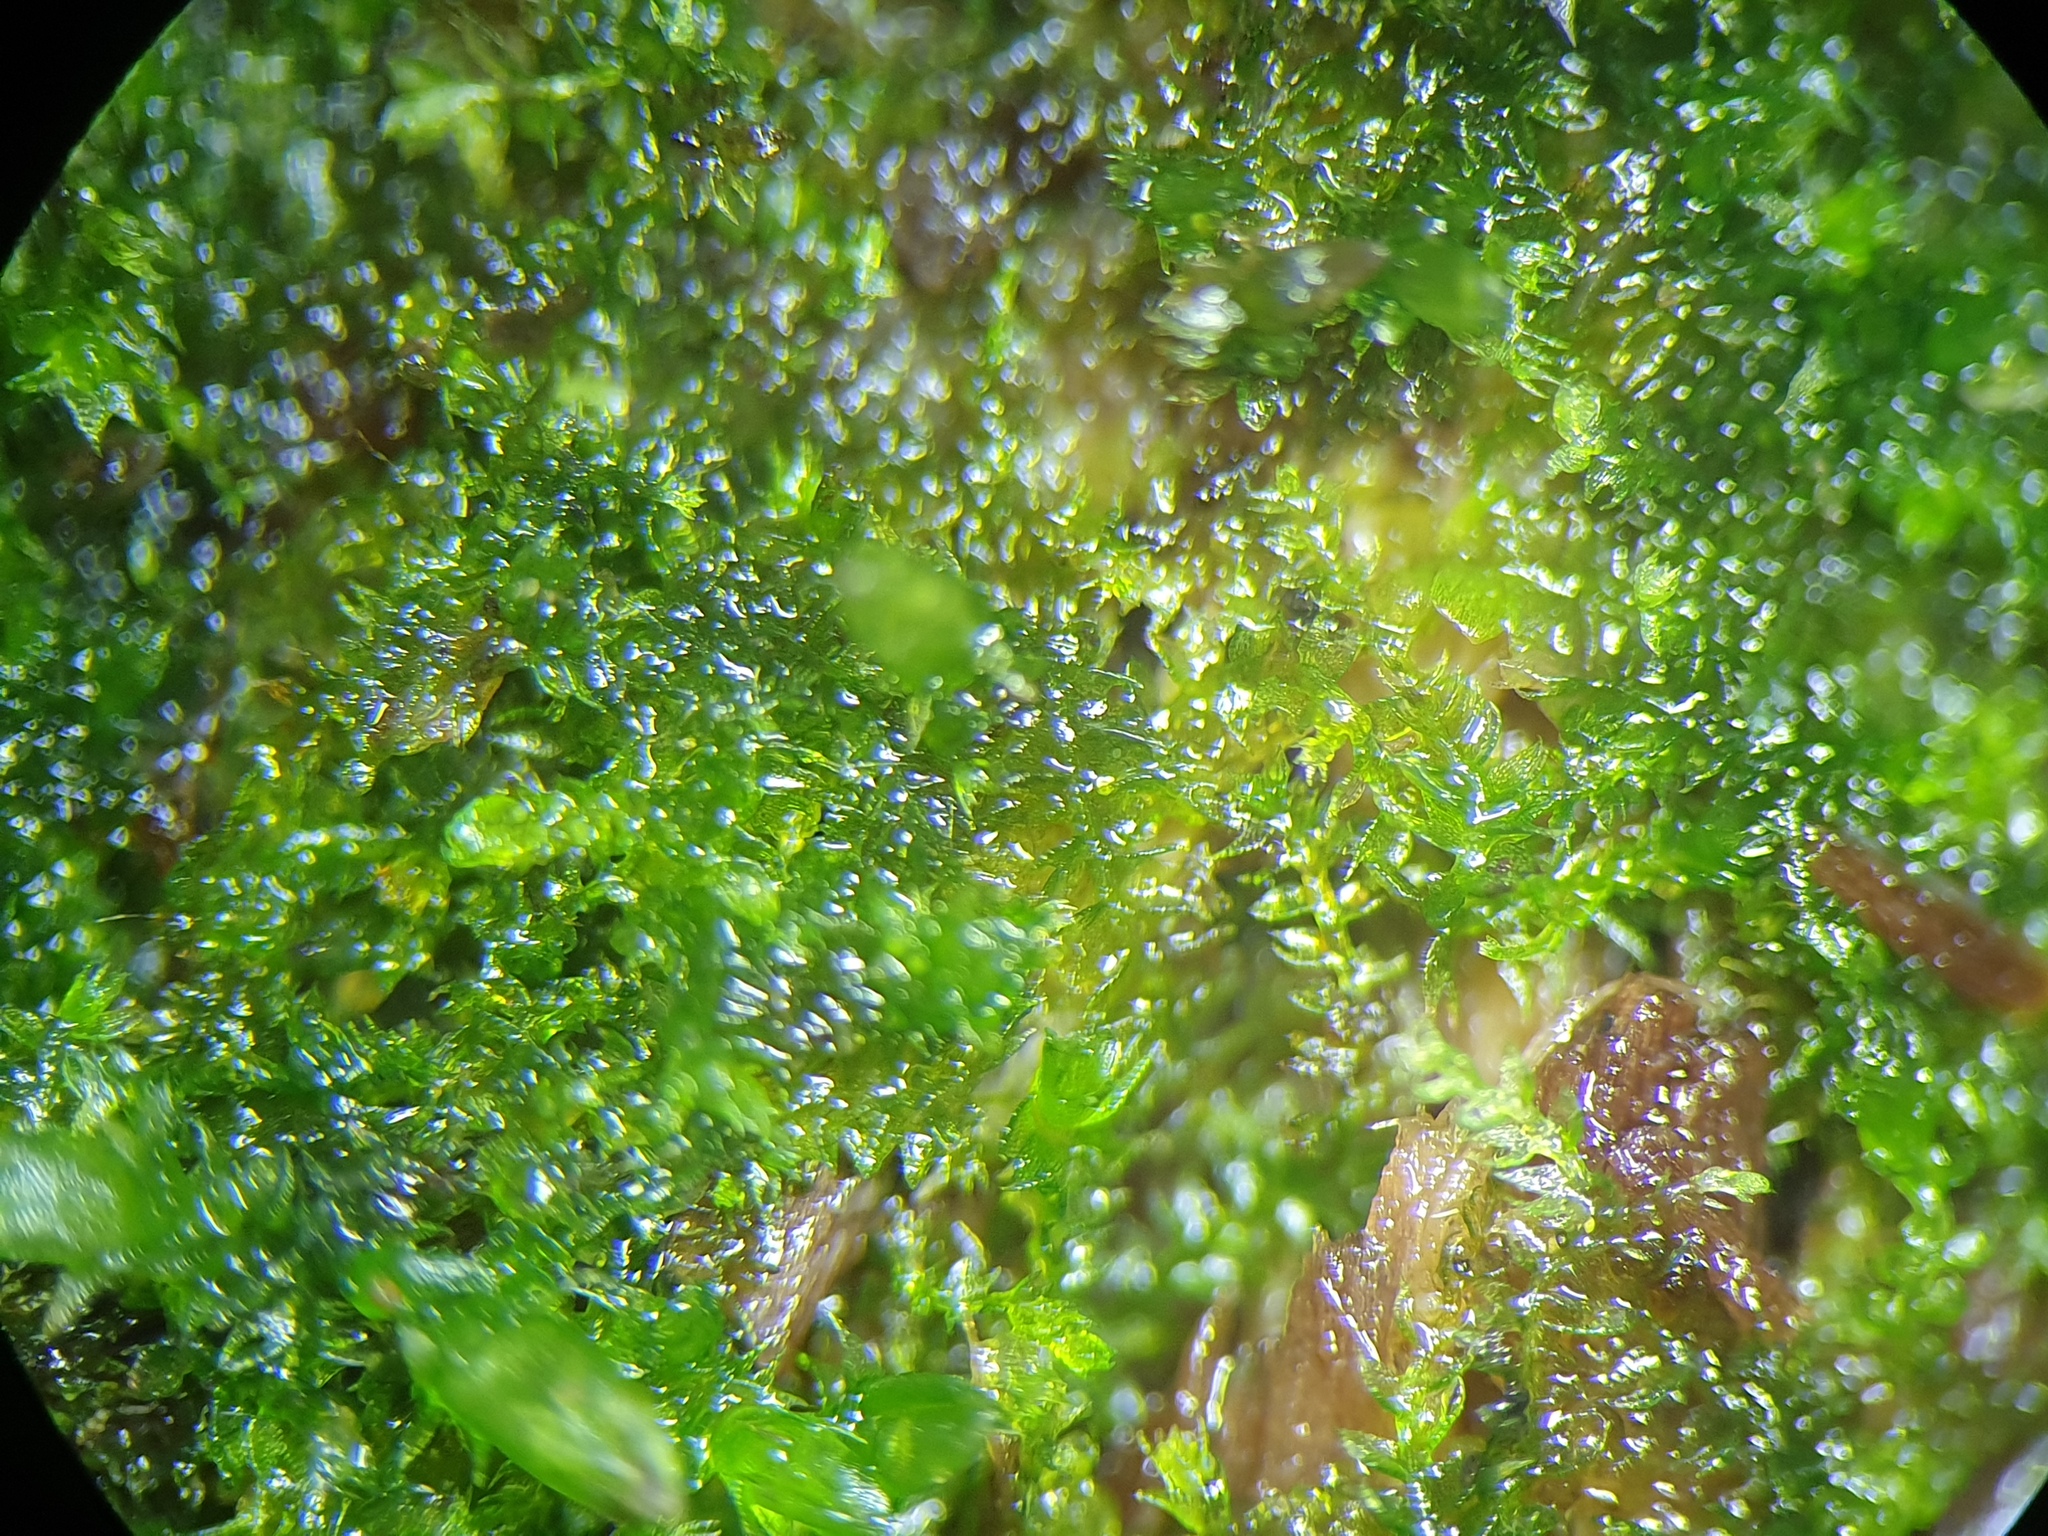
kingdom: Plantae
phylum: Marchantiophyta
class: Jungermanniopsida
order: Jungermanniales
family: Cephaloziaceae
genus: Cephalozia
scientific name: Cephalozia bicuspidata
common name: Two-horned pincerwort
